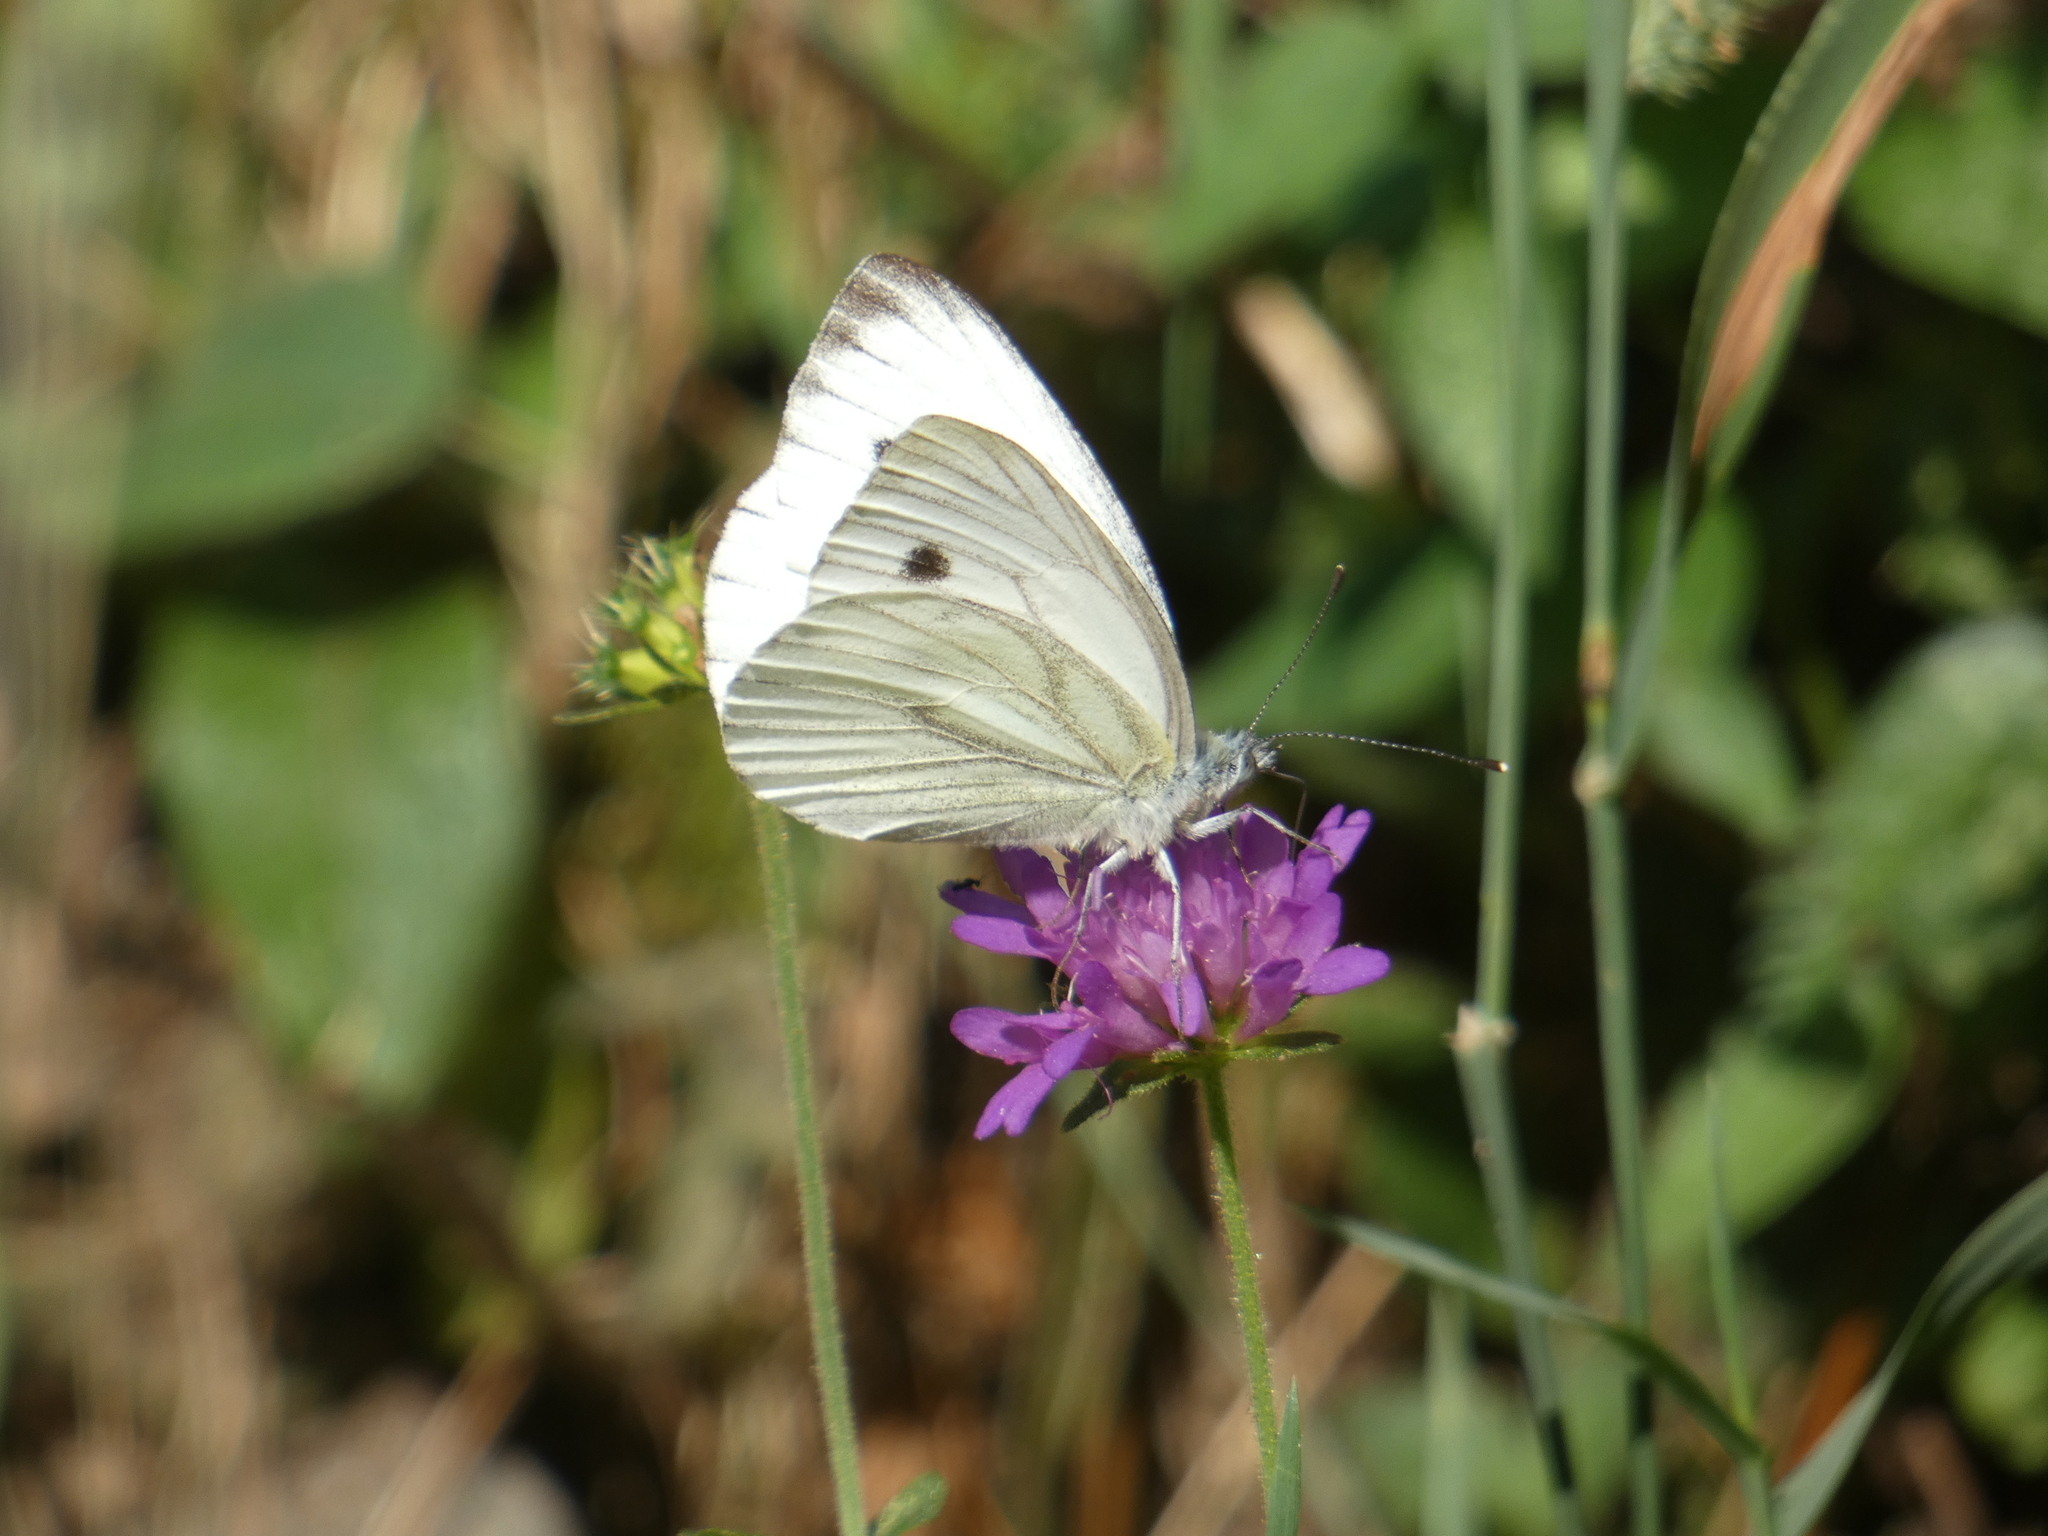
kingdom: Animalia
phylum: Arthropoda
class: Insecta
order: Lepidoptera
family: Pieridae
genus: Pieris
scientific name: Pieris napi
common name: Green-veined white
